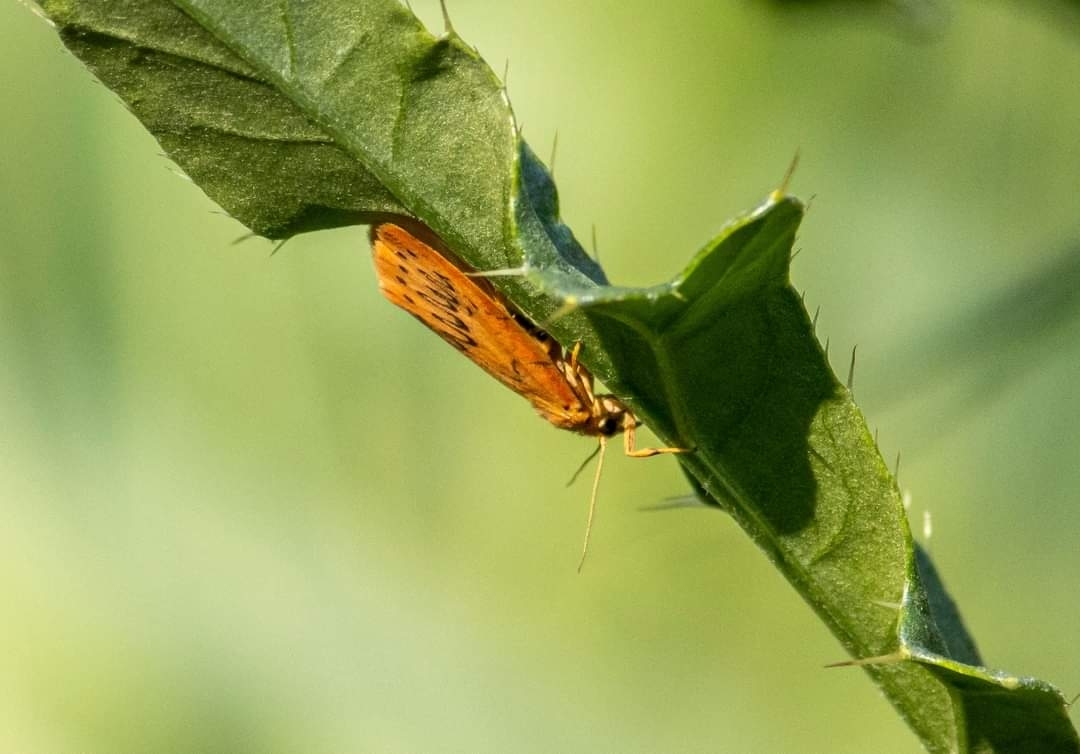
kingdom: Animalia
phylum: Arthropoda
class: Insecta
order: Lepidoptera
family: Erebidae
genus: Miltochrista
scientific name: Miltochrista miniata
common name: Rosy footman
